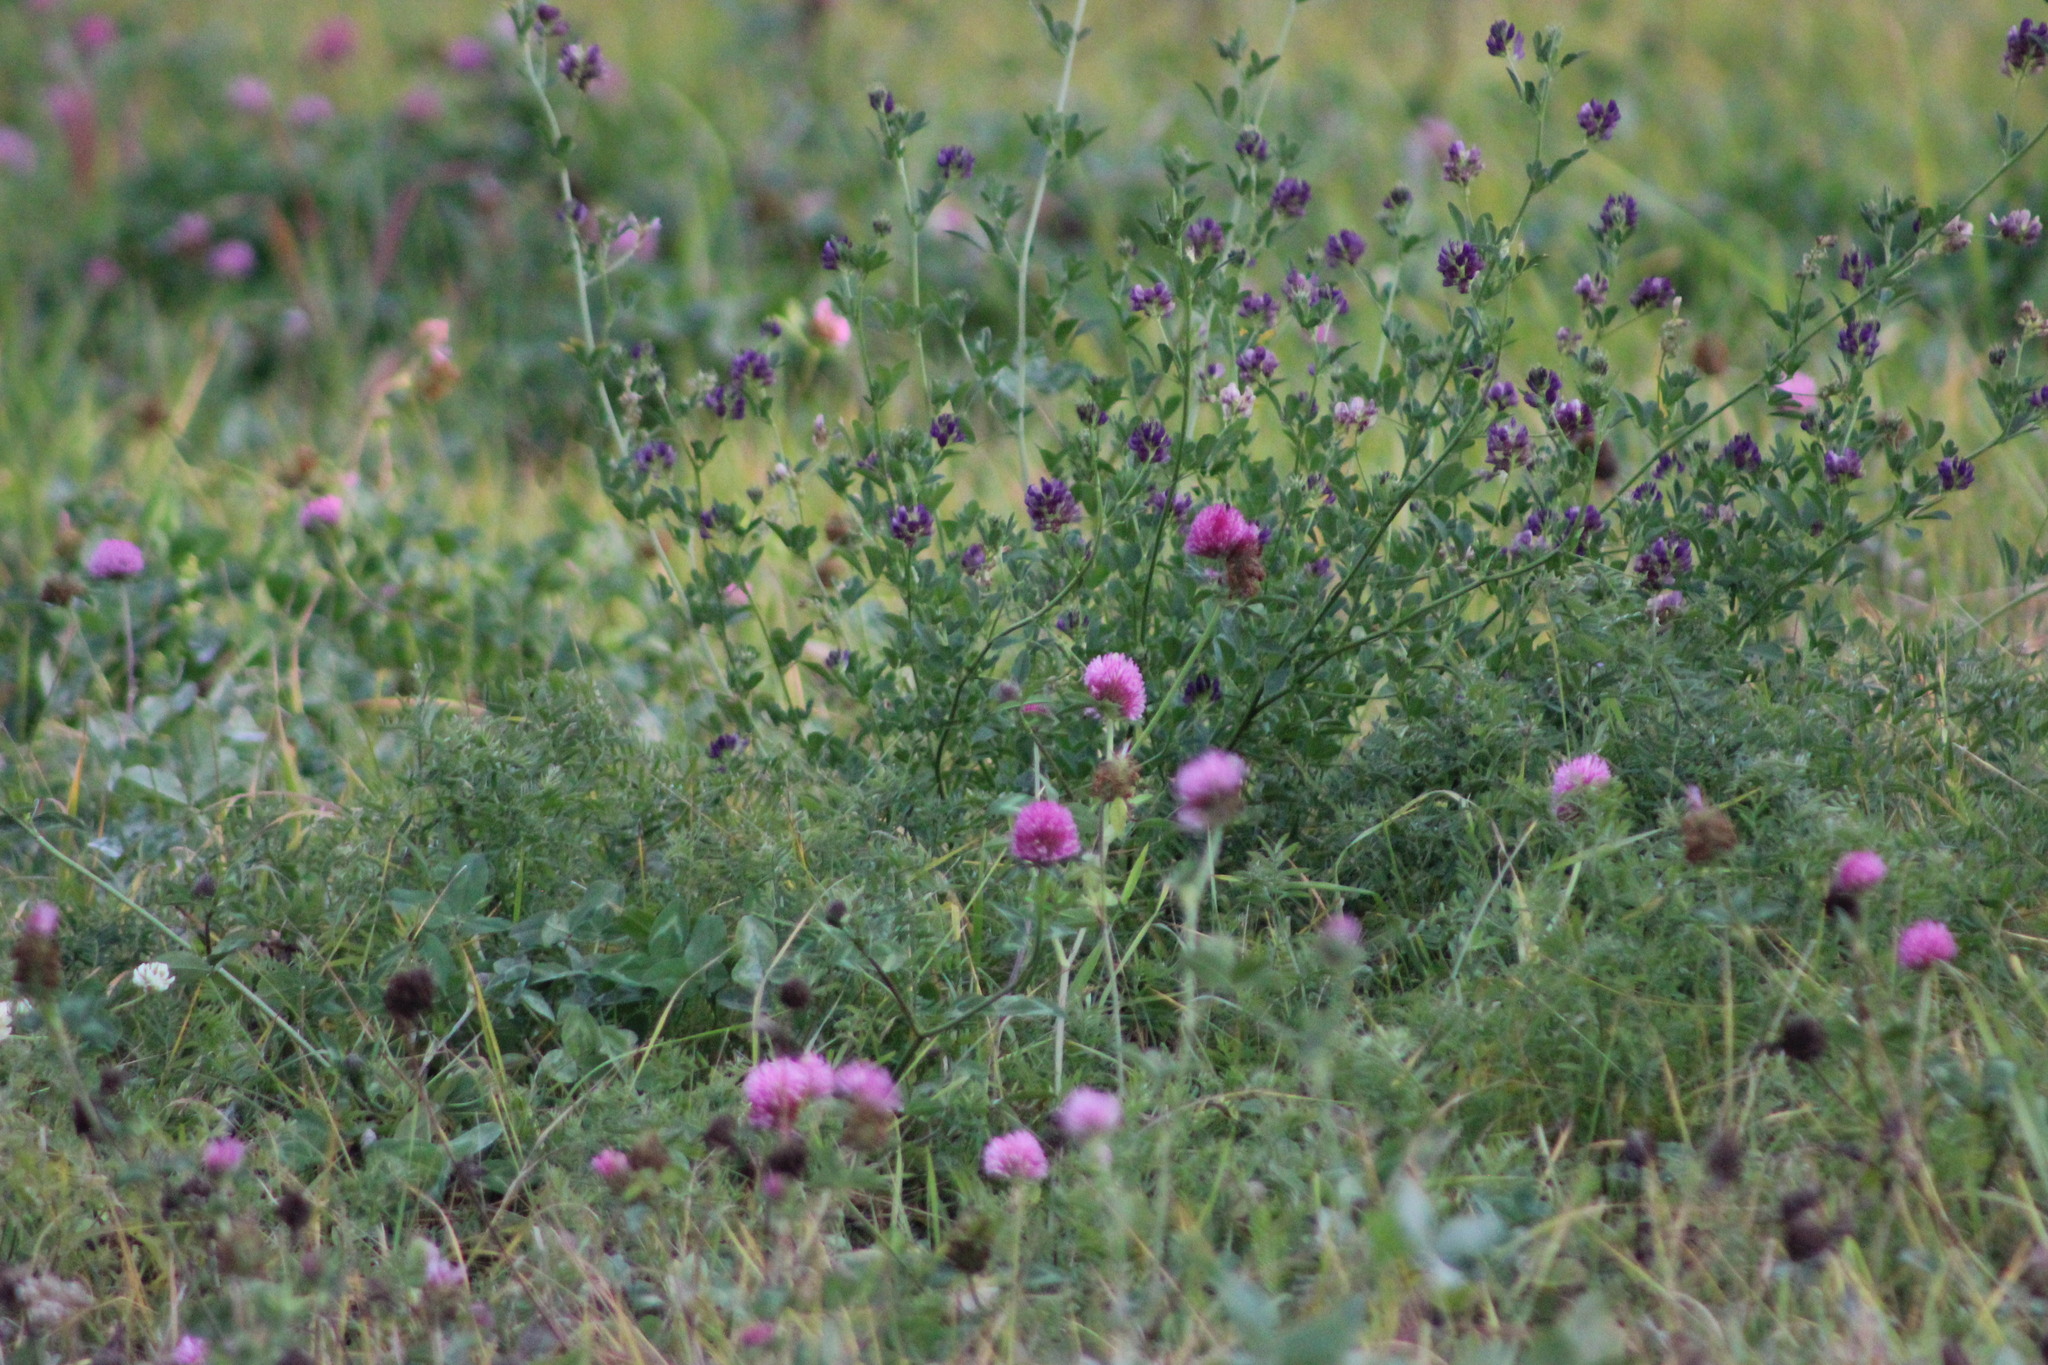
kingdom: Plantae
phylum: Tracheophyta
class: Magnoliopsida
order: Fabales
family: Fabaceae
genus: Trifolium
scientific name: Trifolium pratense
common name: Red clover
